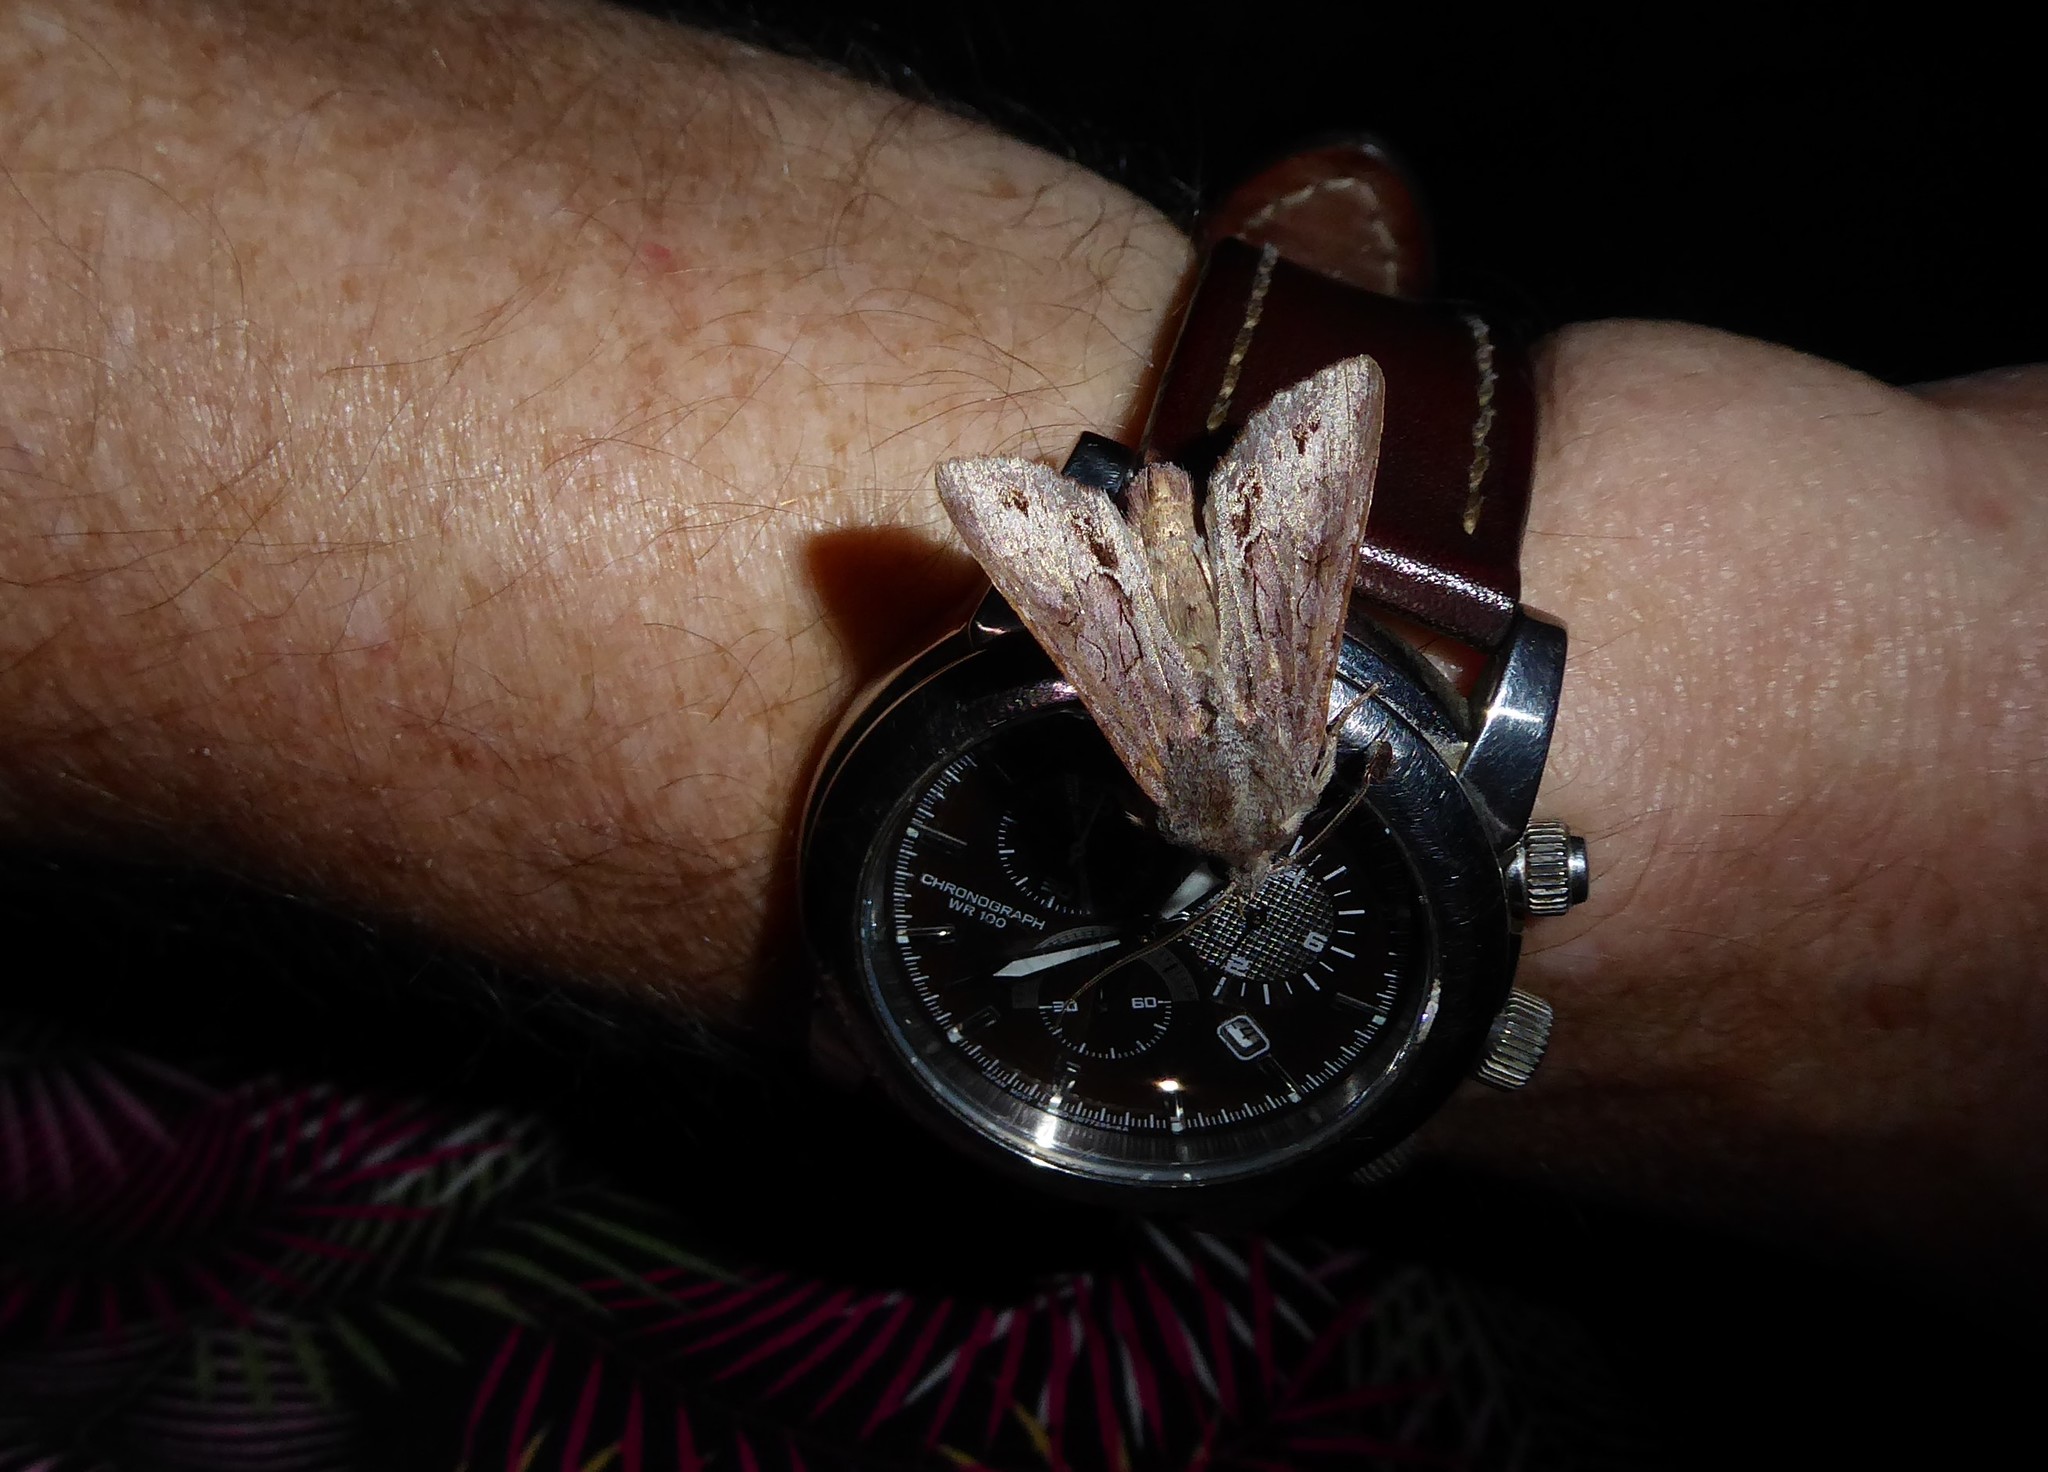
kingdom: Animalia
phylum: Arthropoda
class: Insecta
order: Lepidoptera
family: Noctuidae
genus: Ichneutica
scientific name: Ichneutica
